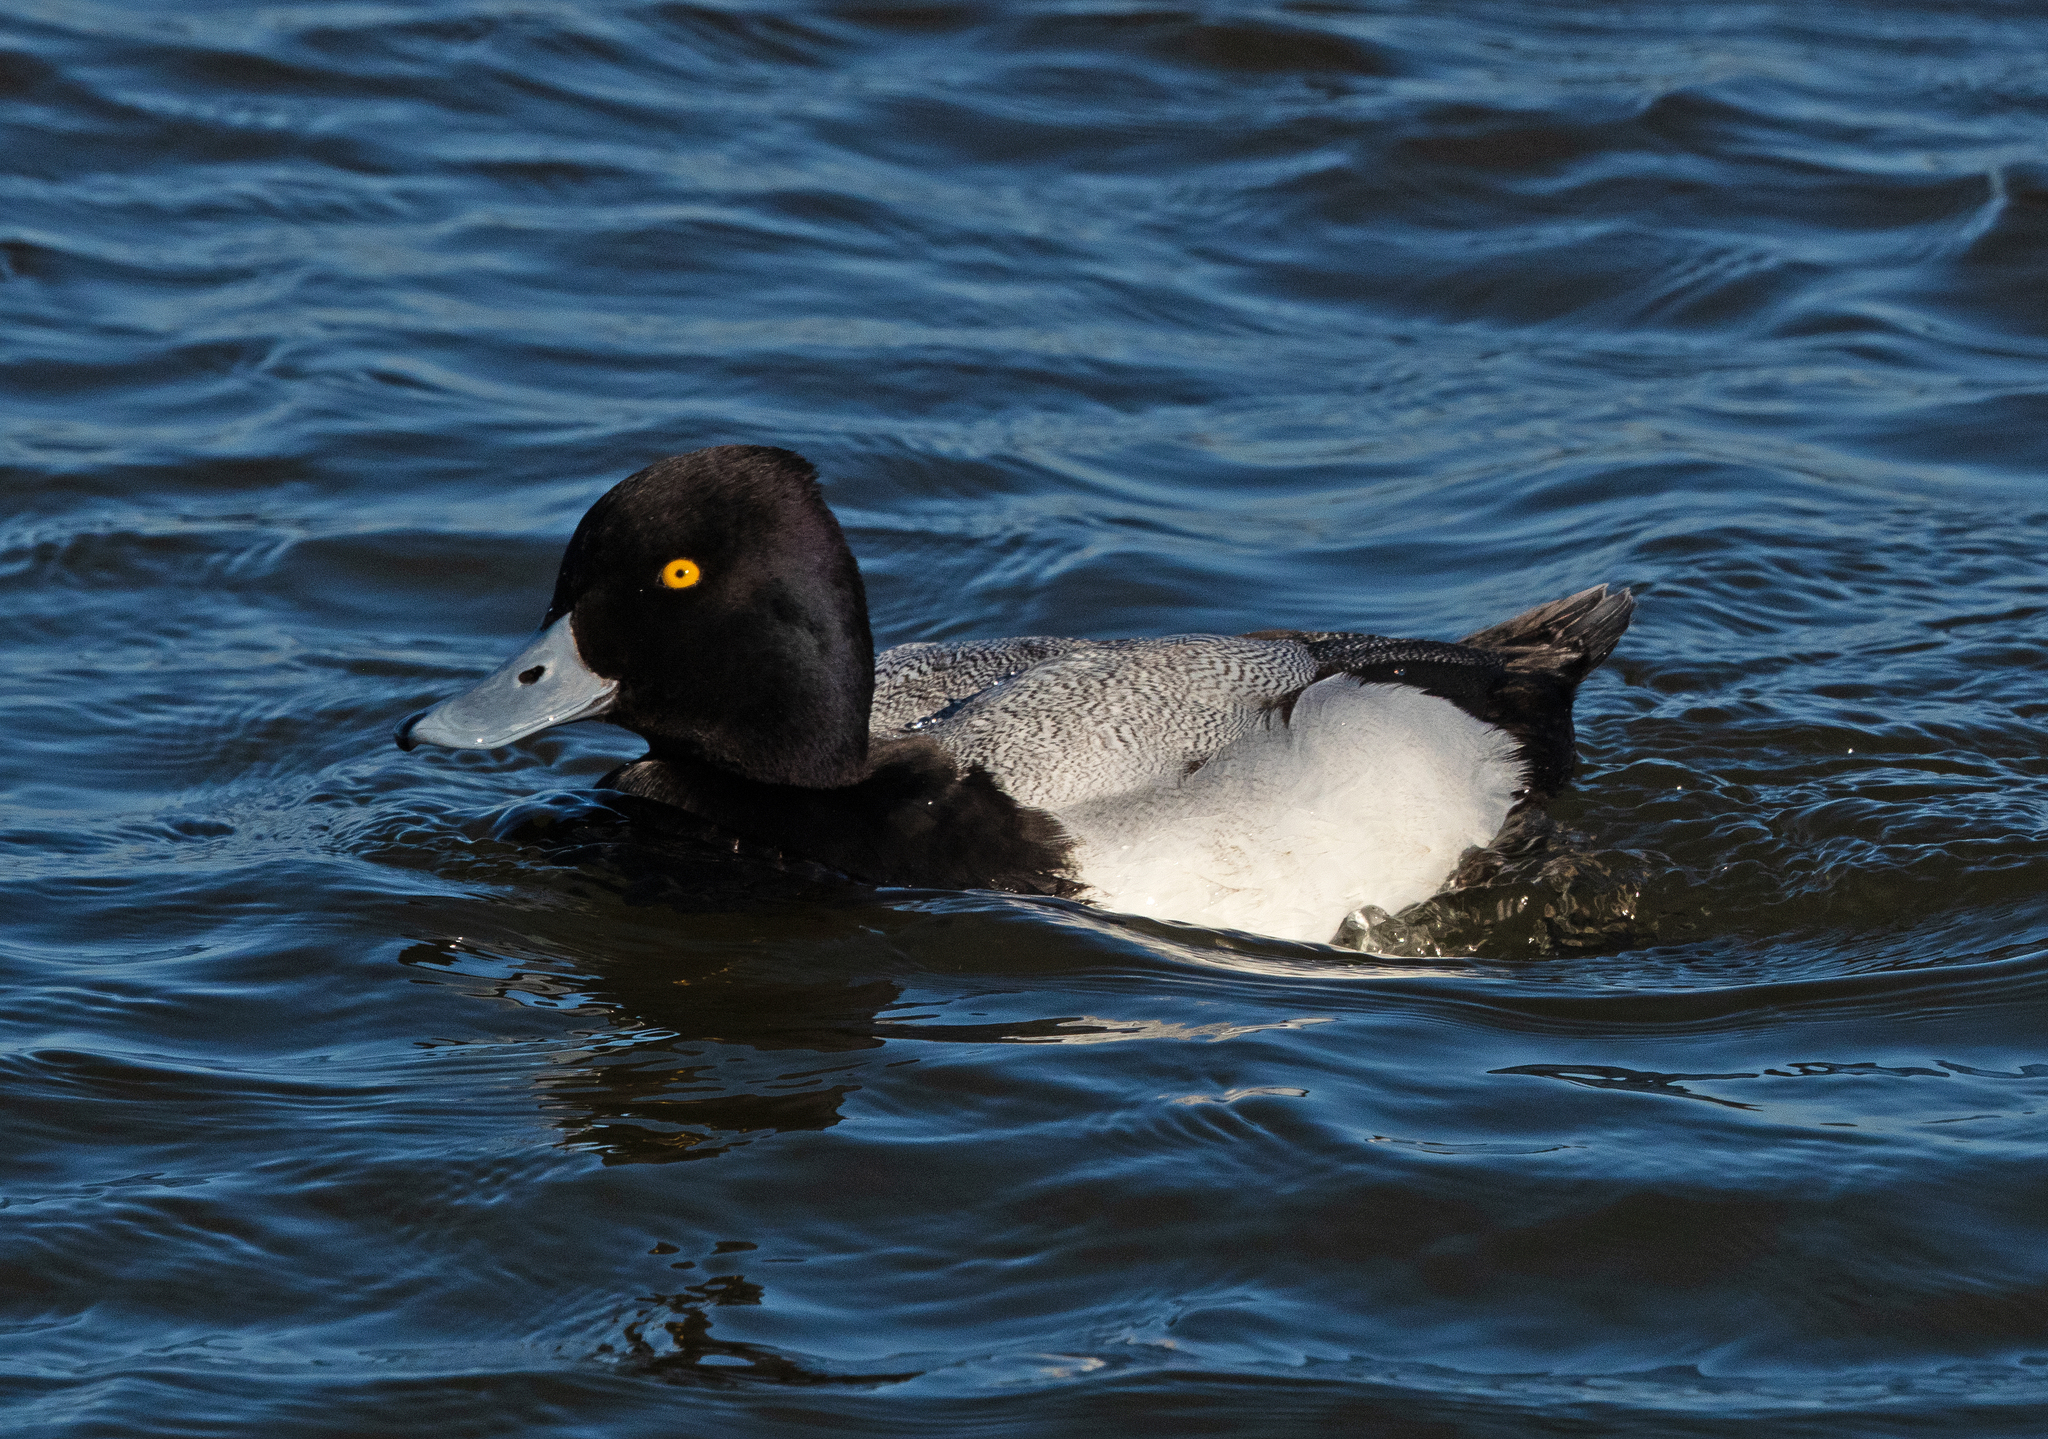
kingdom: Animalia
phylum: Chordata
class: Aves
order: Anseriformes
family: Anatidae
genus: Aythya
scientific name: Aythya affinis
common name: Lesser scaup
